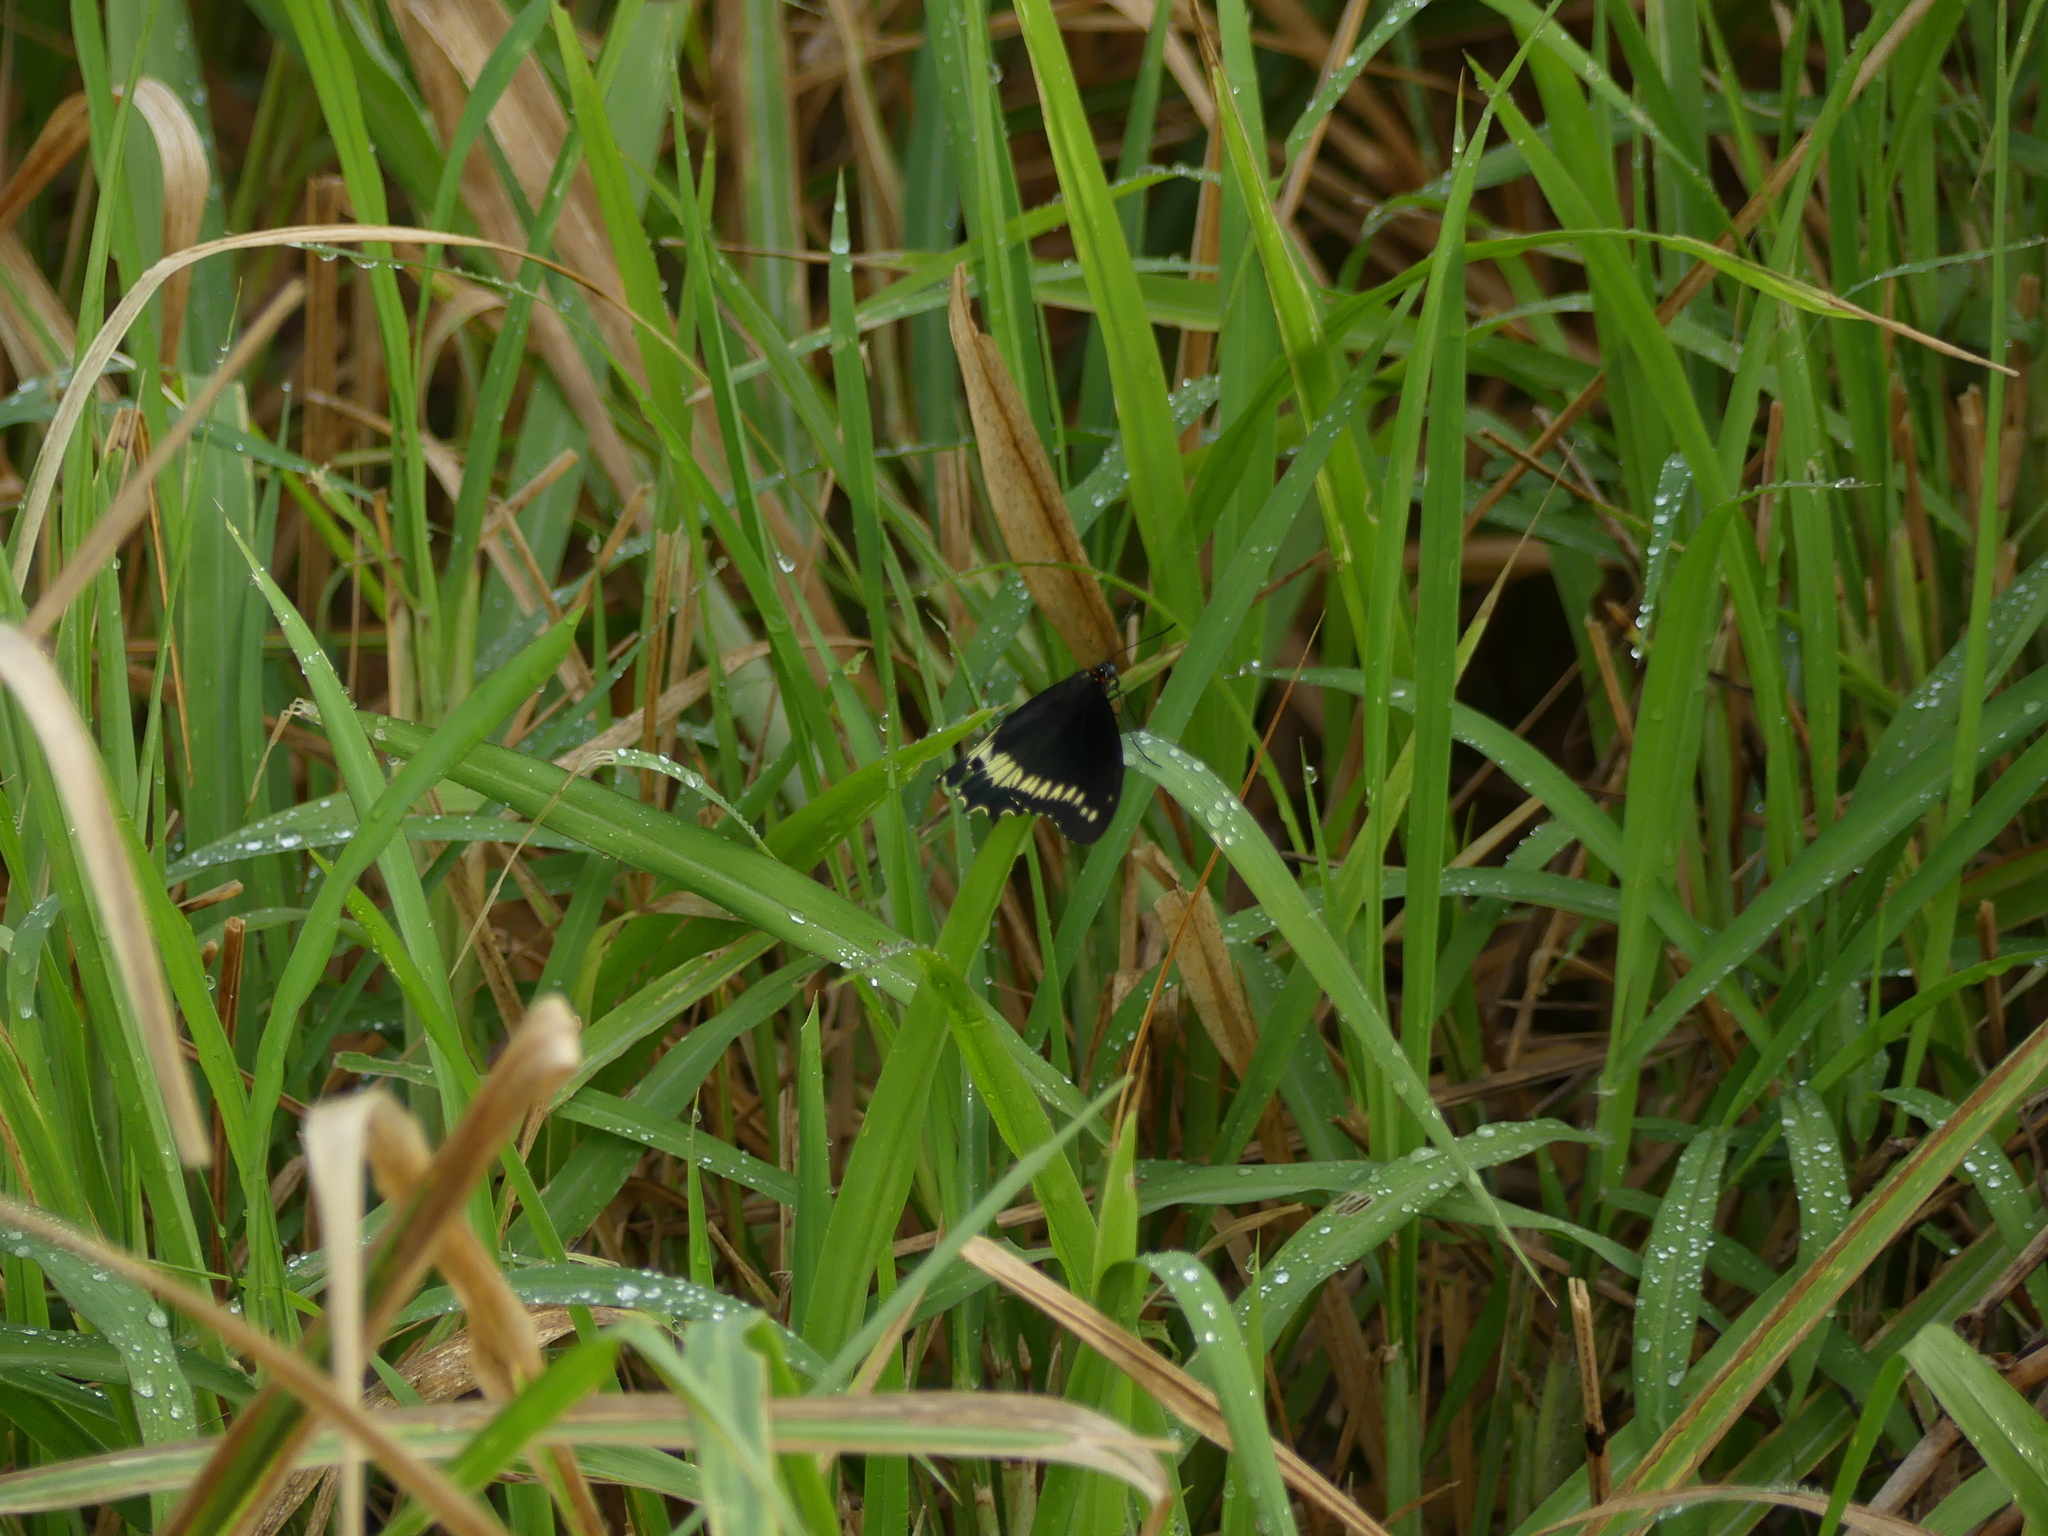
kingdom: Animalia
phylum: Arthropoda
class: Insecta
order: Lepidoptera
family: Papilionidae
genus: Battus
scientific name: Battus polydamas
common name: Polydamas swallowtail
